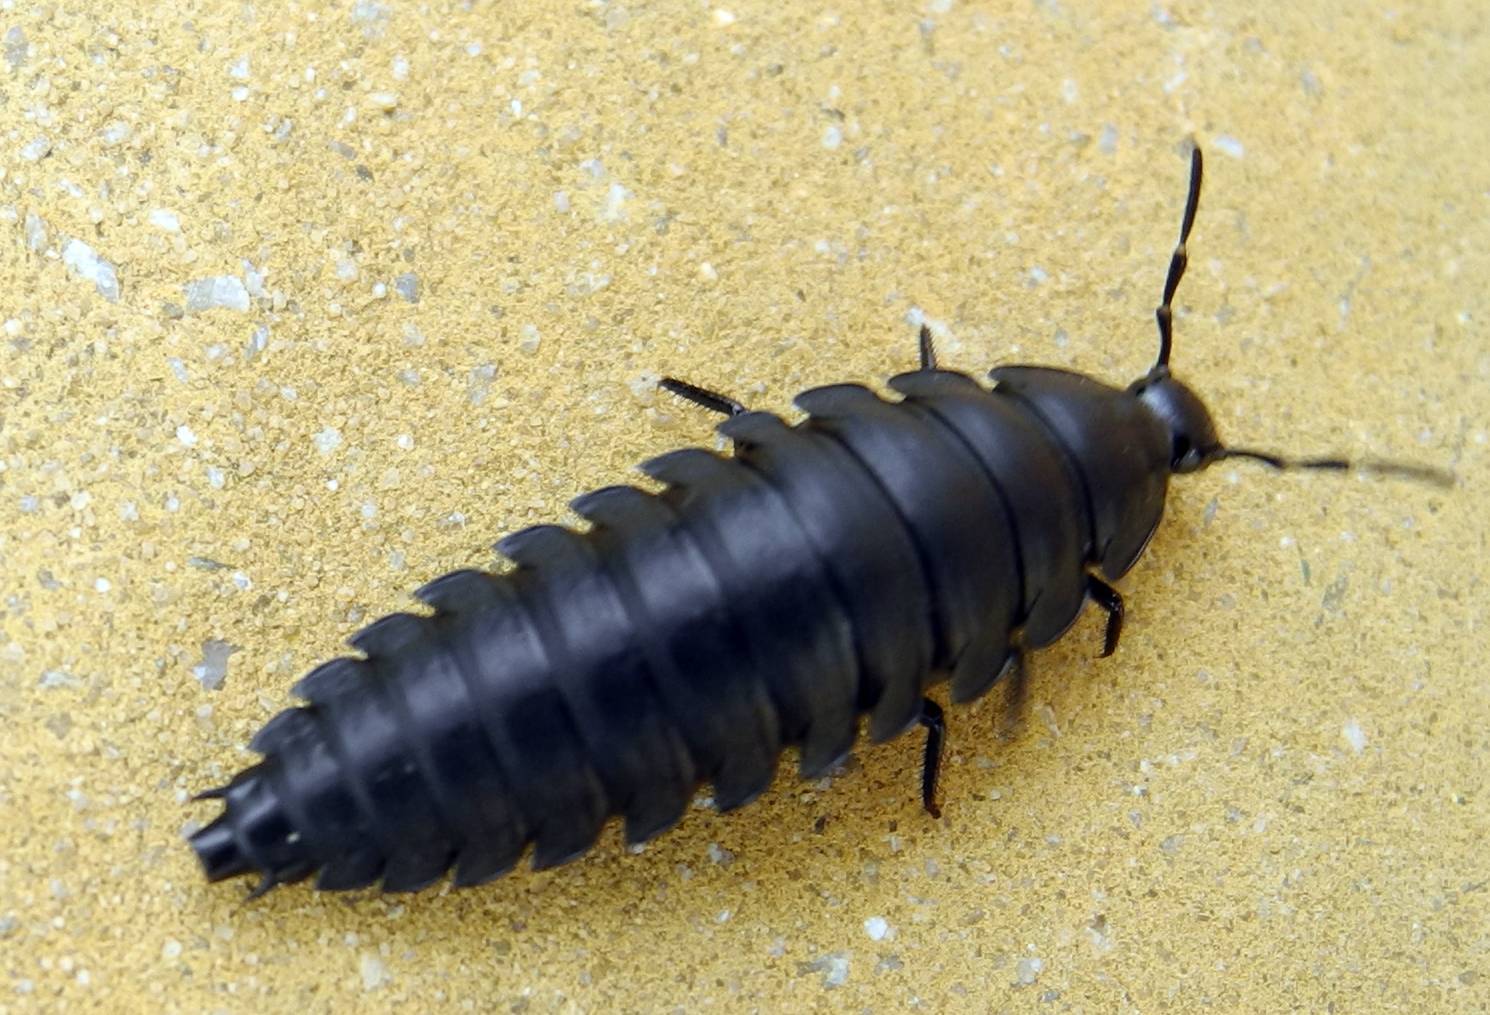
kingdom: Animalia
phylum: Arthropoda
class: Insecta
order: Coleoptera
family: Staphylinidae
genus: Silpha
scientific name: Silpha laevigata
